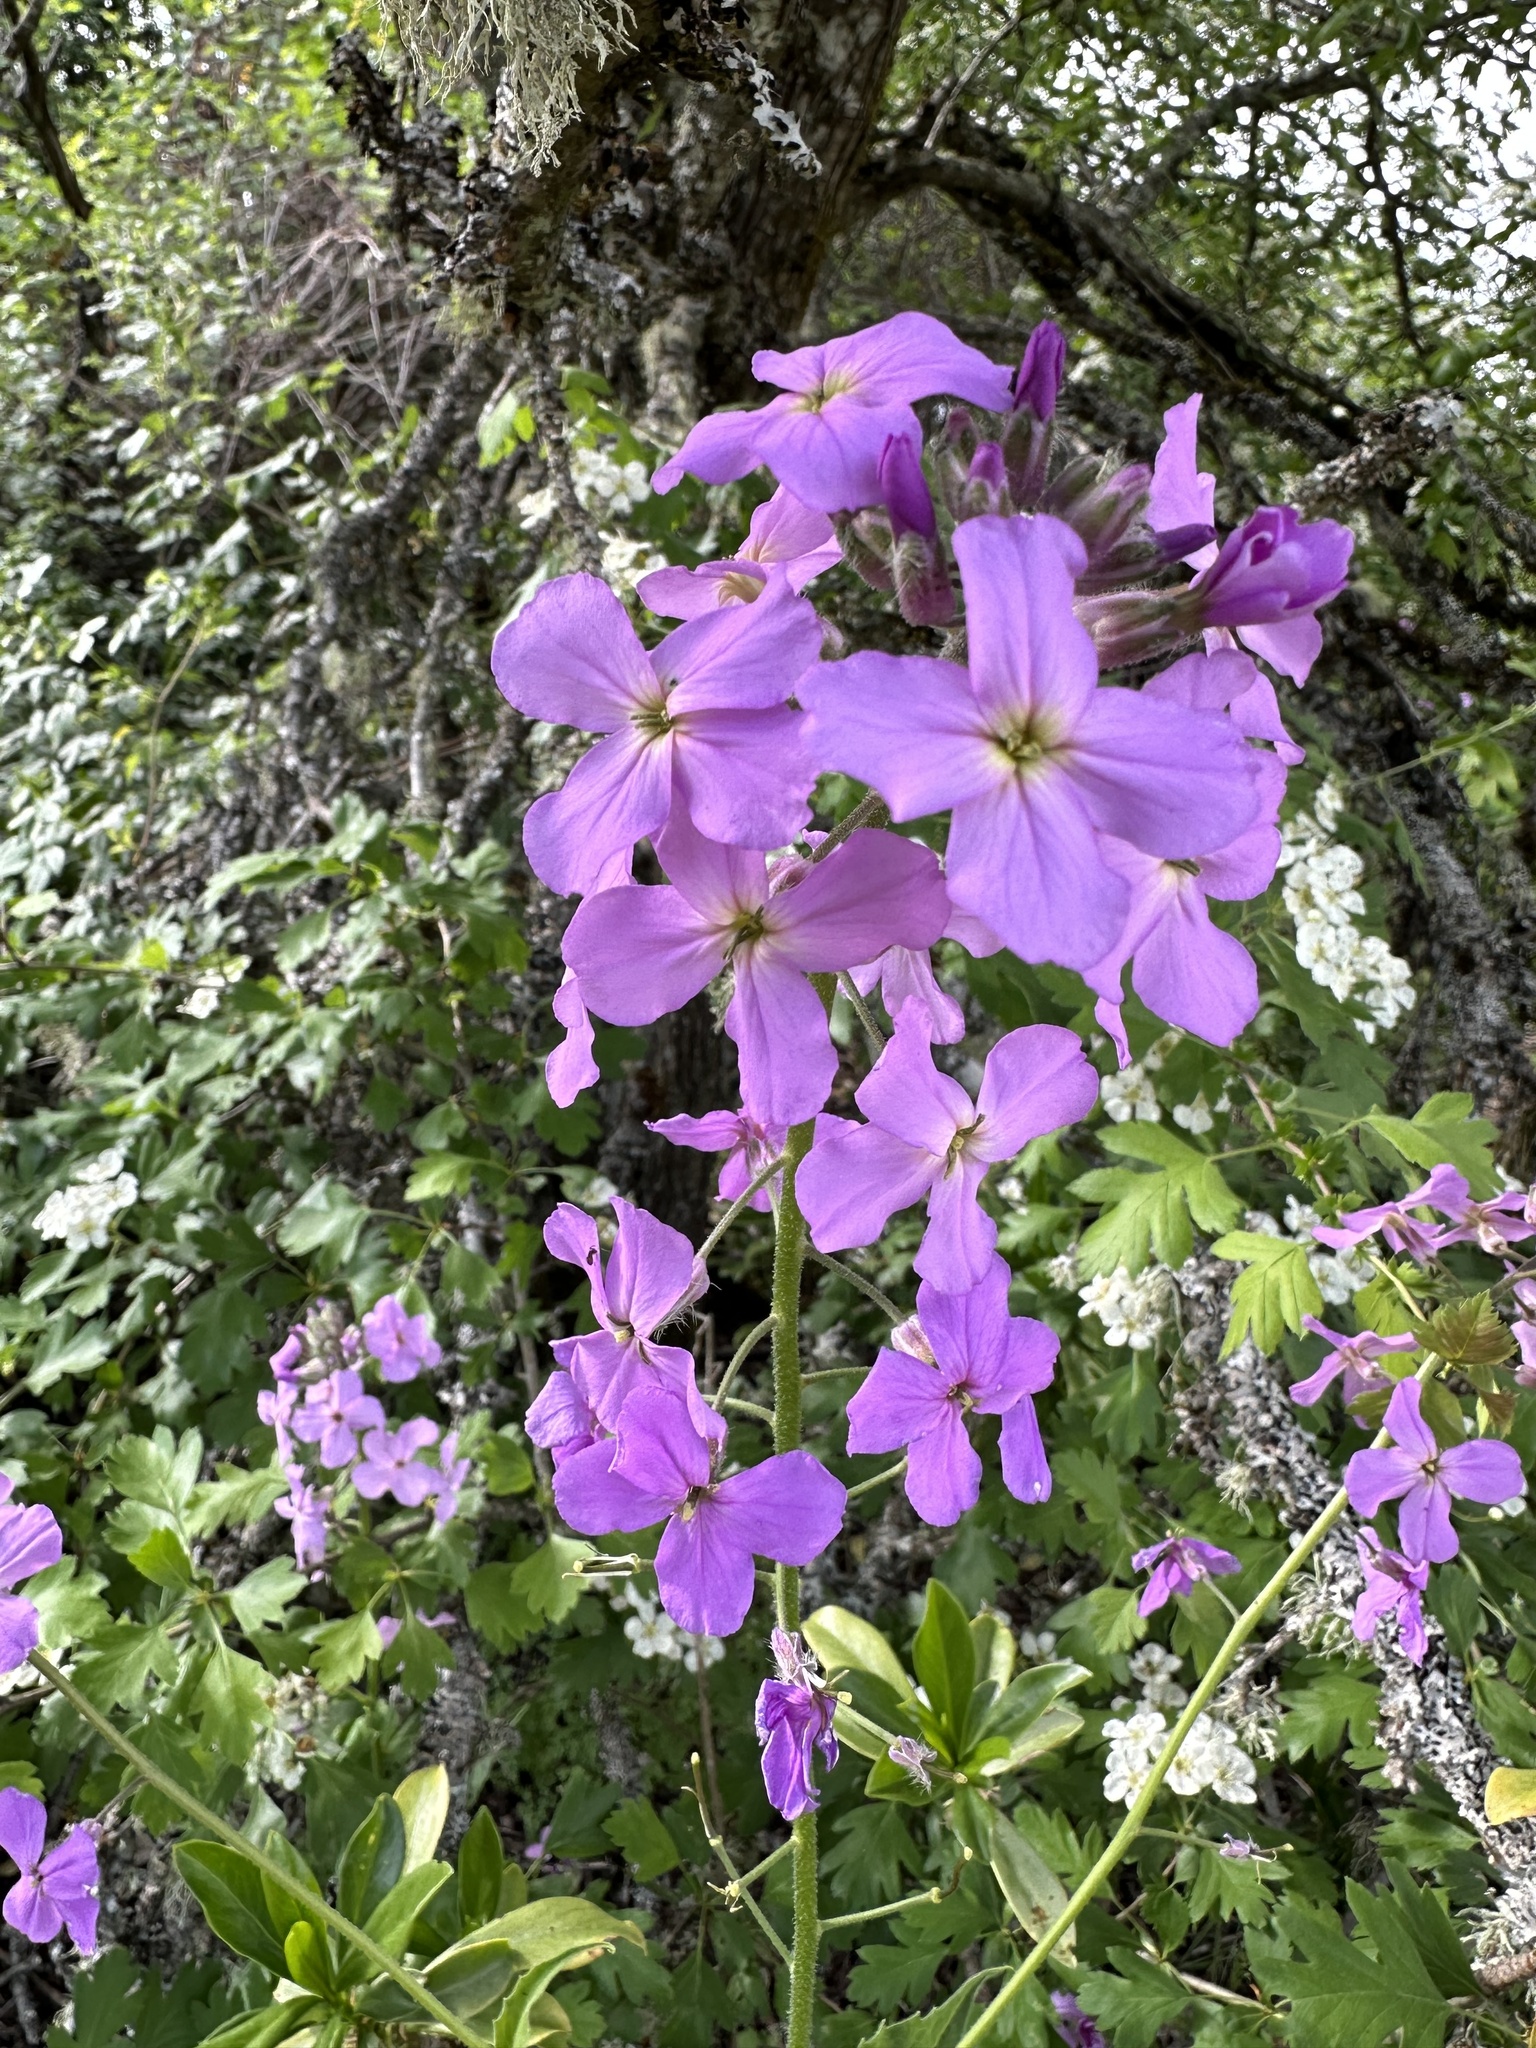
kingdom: Plantae
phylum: Tracheophyta
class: Magnoliopsida
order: Brassicales
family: Brassicaceae
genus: Hesperis
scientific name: Hesperis matronalis
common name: Dame's-violet
